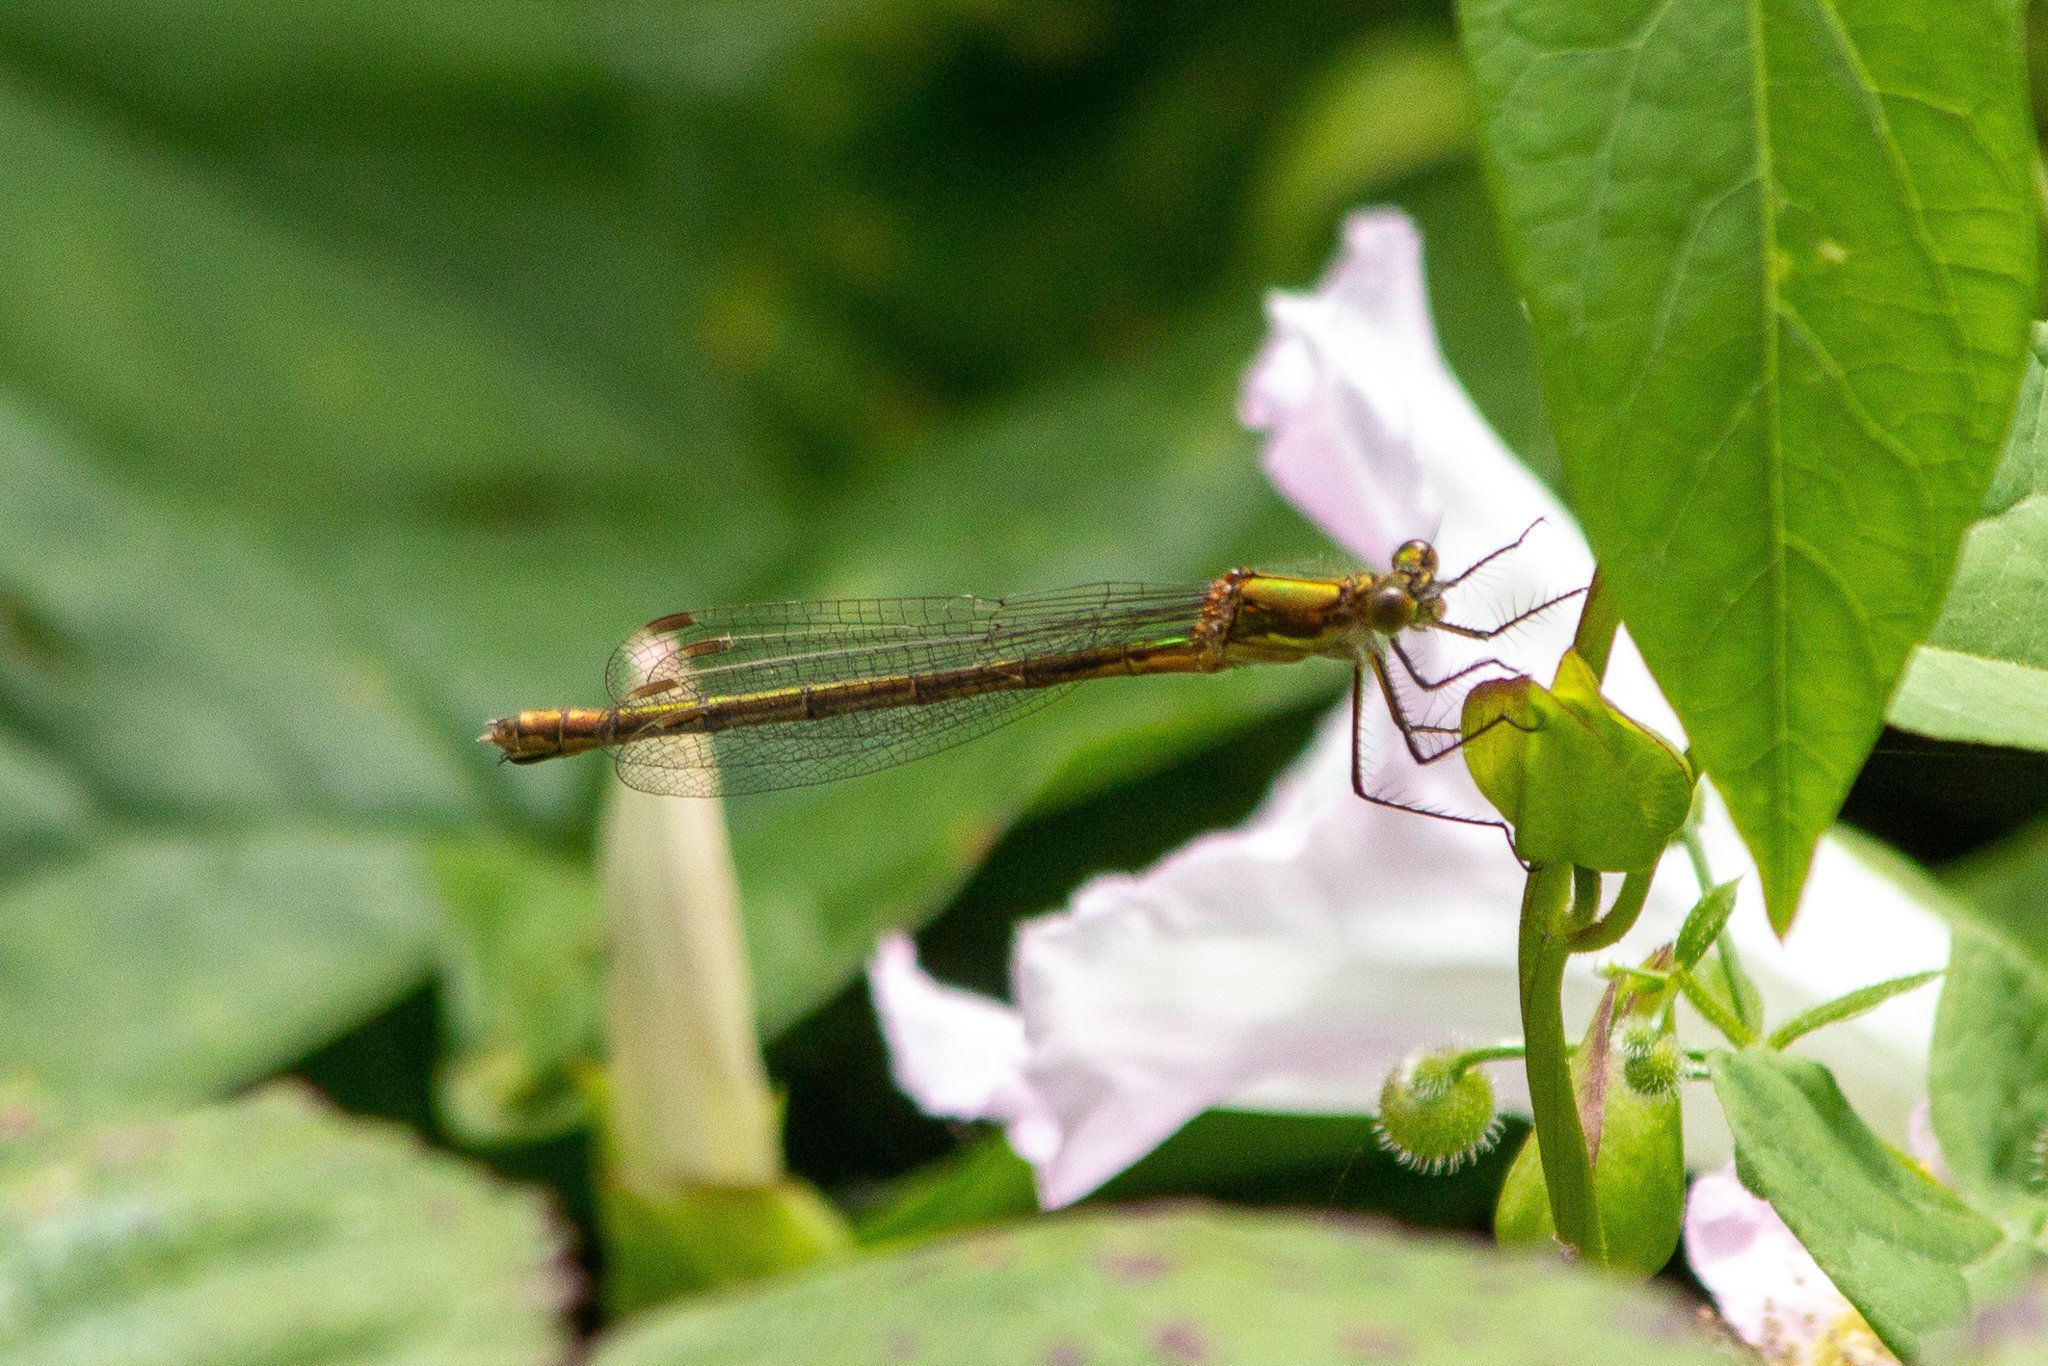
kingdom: Animalia
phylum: Arthropoda
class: Insecta
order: Odonata
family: Lestidae
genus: Lestes
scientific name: Lestes sponsa
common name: Common spreadwing
